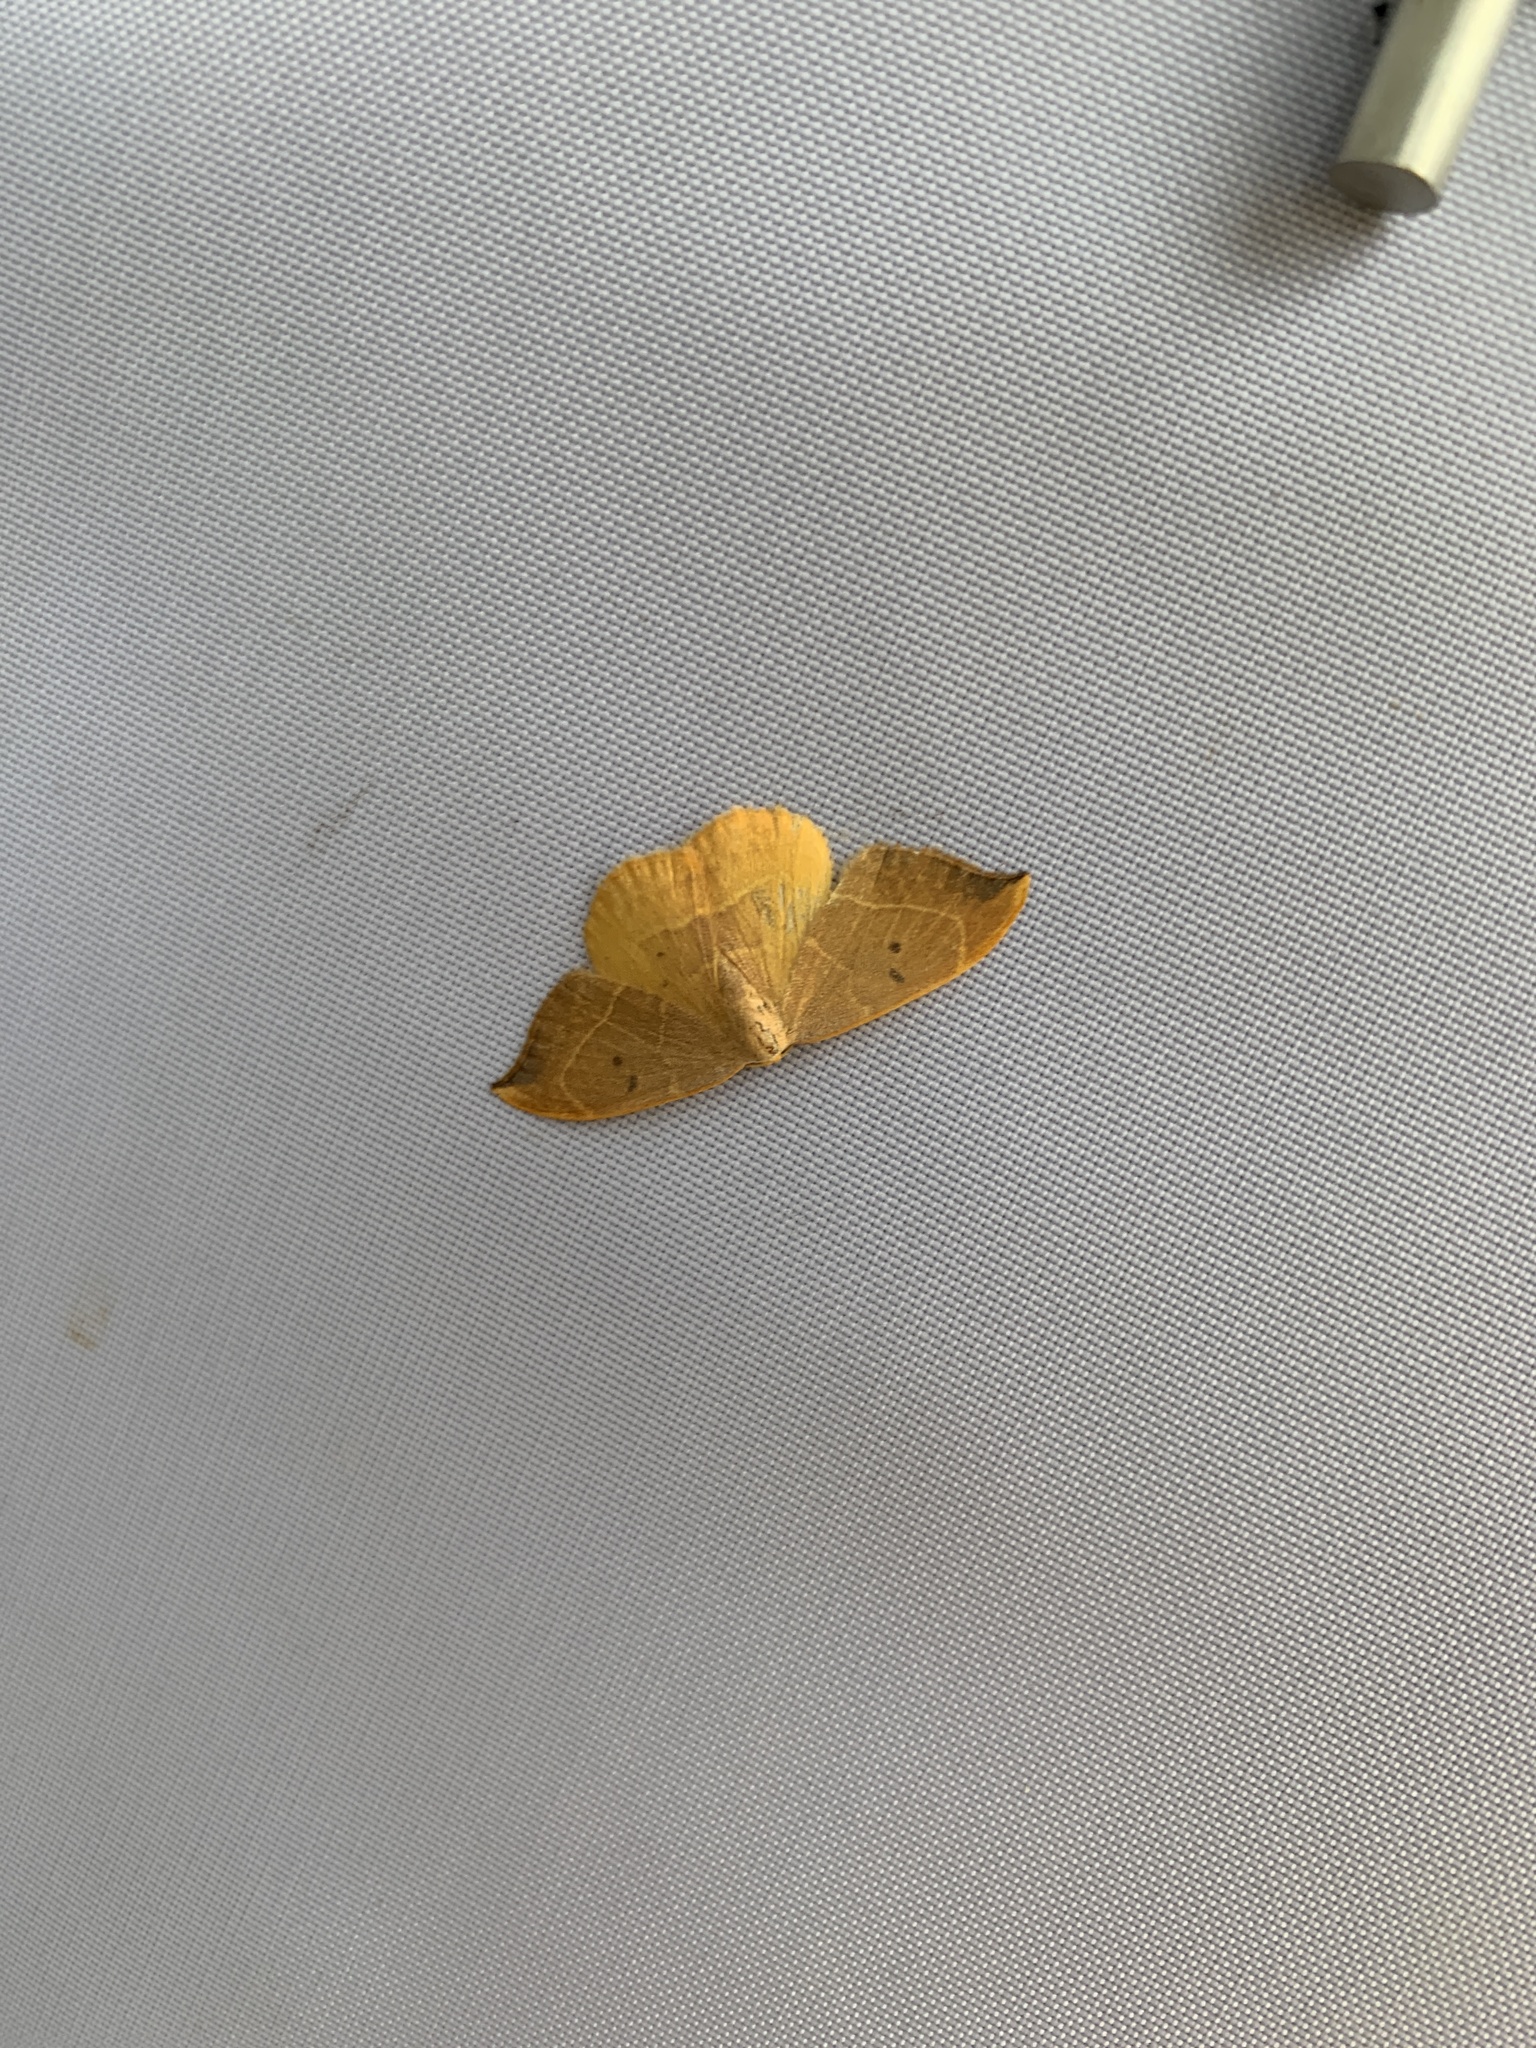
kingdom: Animalia
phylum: Arthropoda
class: Insecta
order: Lepidoptera
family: Drepanidae
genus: Watsonalla
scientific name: Watsonalla binaria
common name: Oak hook-tip
